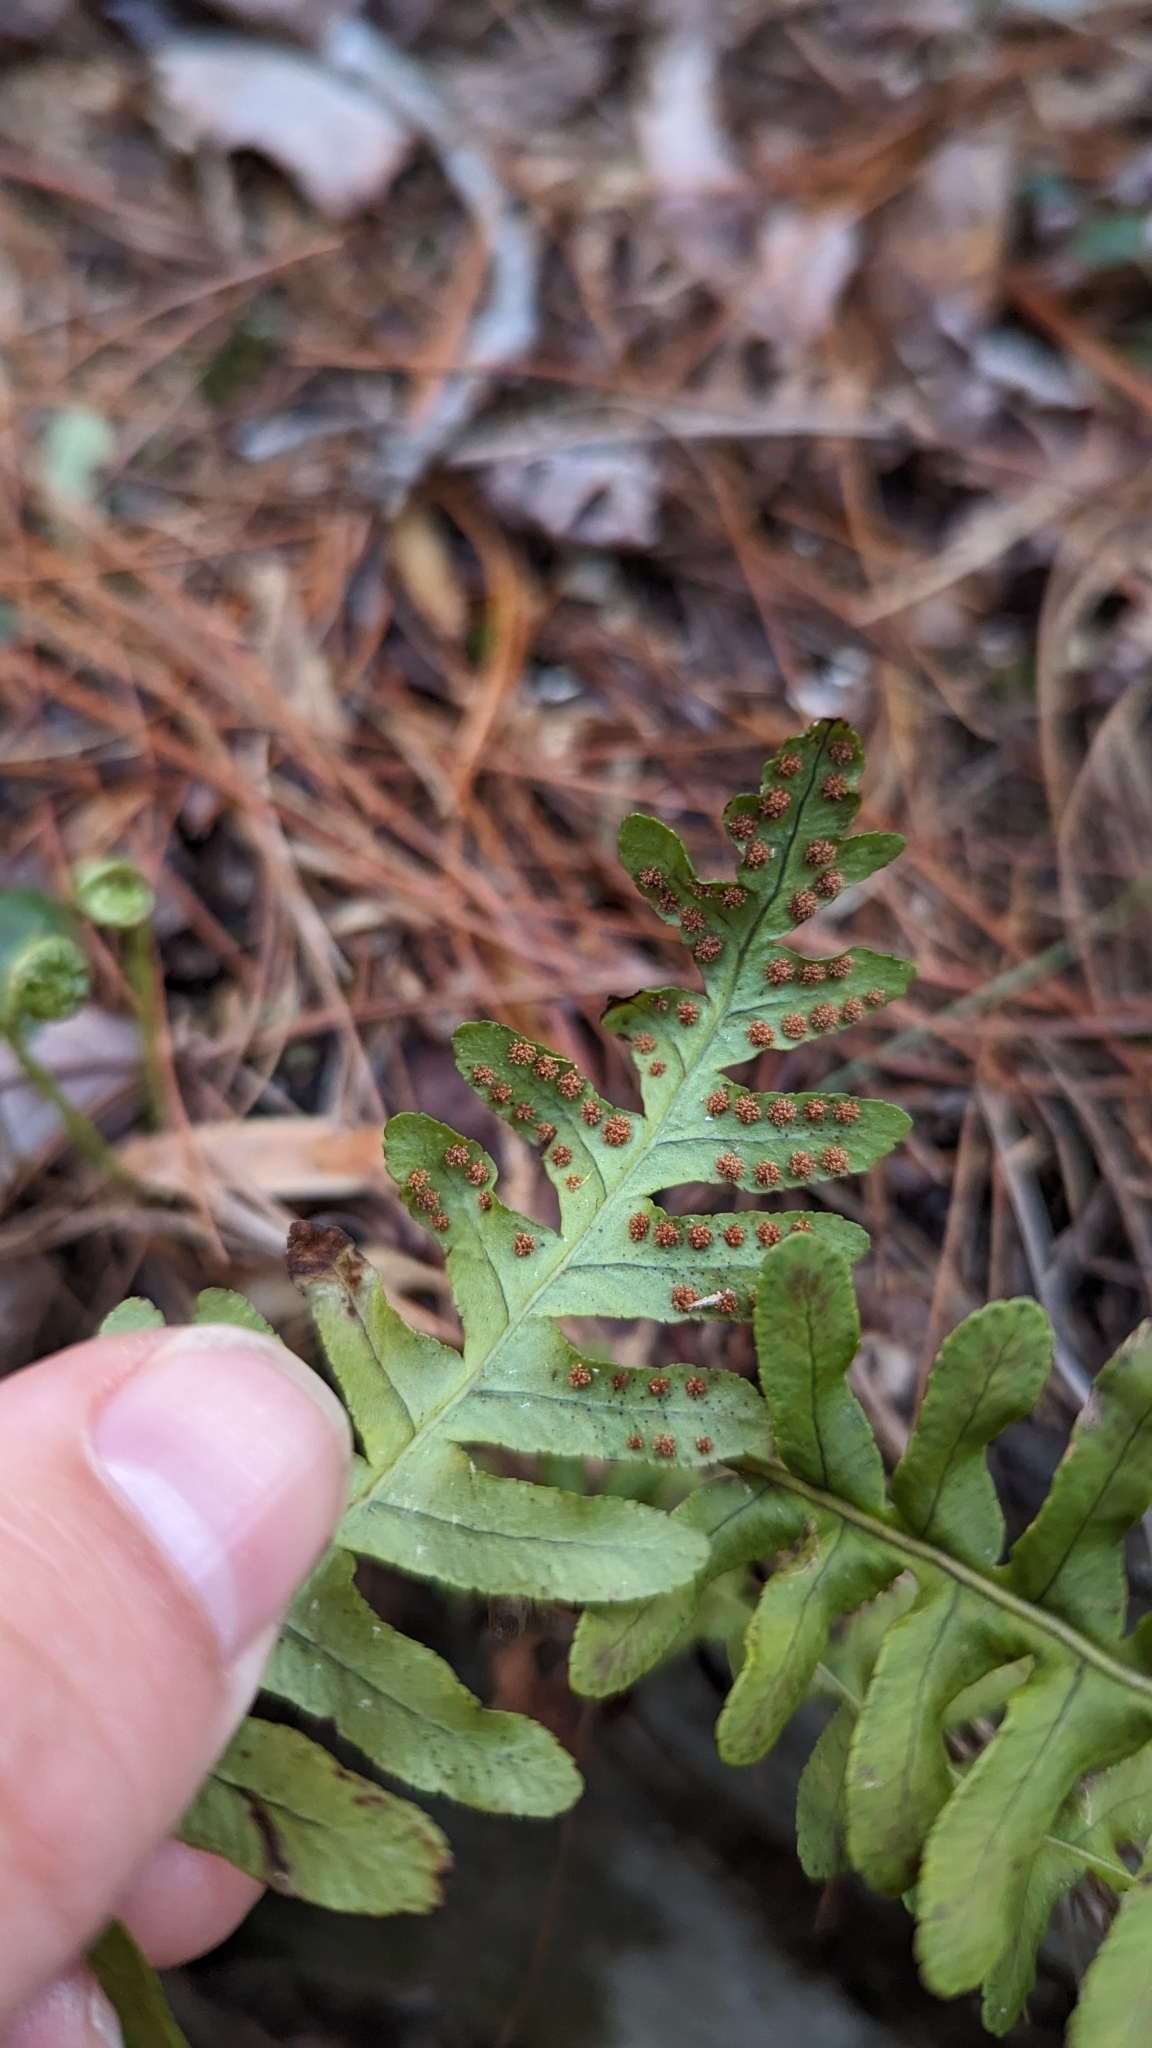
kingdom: Plantae
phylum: Tracheophyta
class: Polypodiopsida
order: Polypodiales
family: Polypodiaceae
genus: Polypodium
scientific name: Polypodium virginianum
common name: American wall fern
